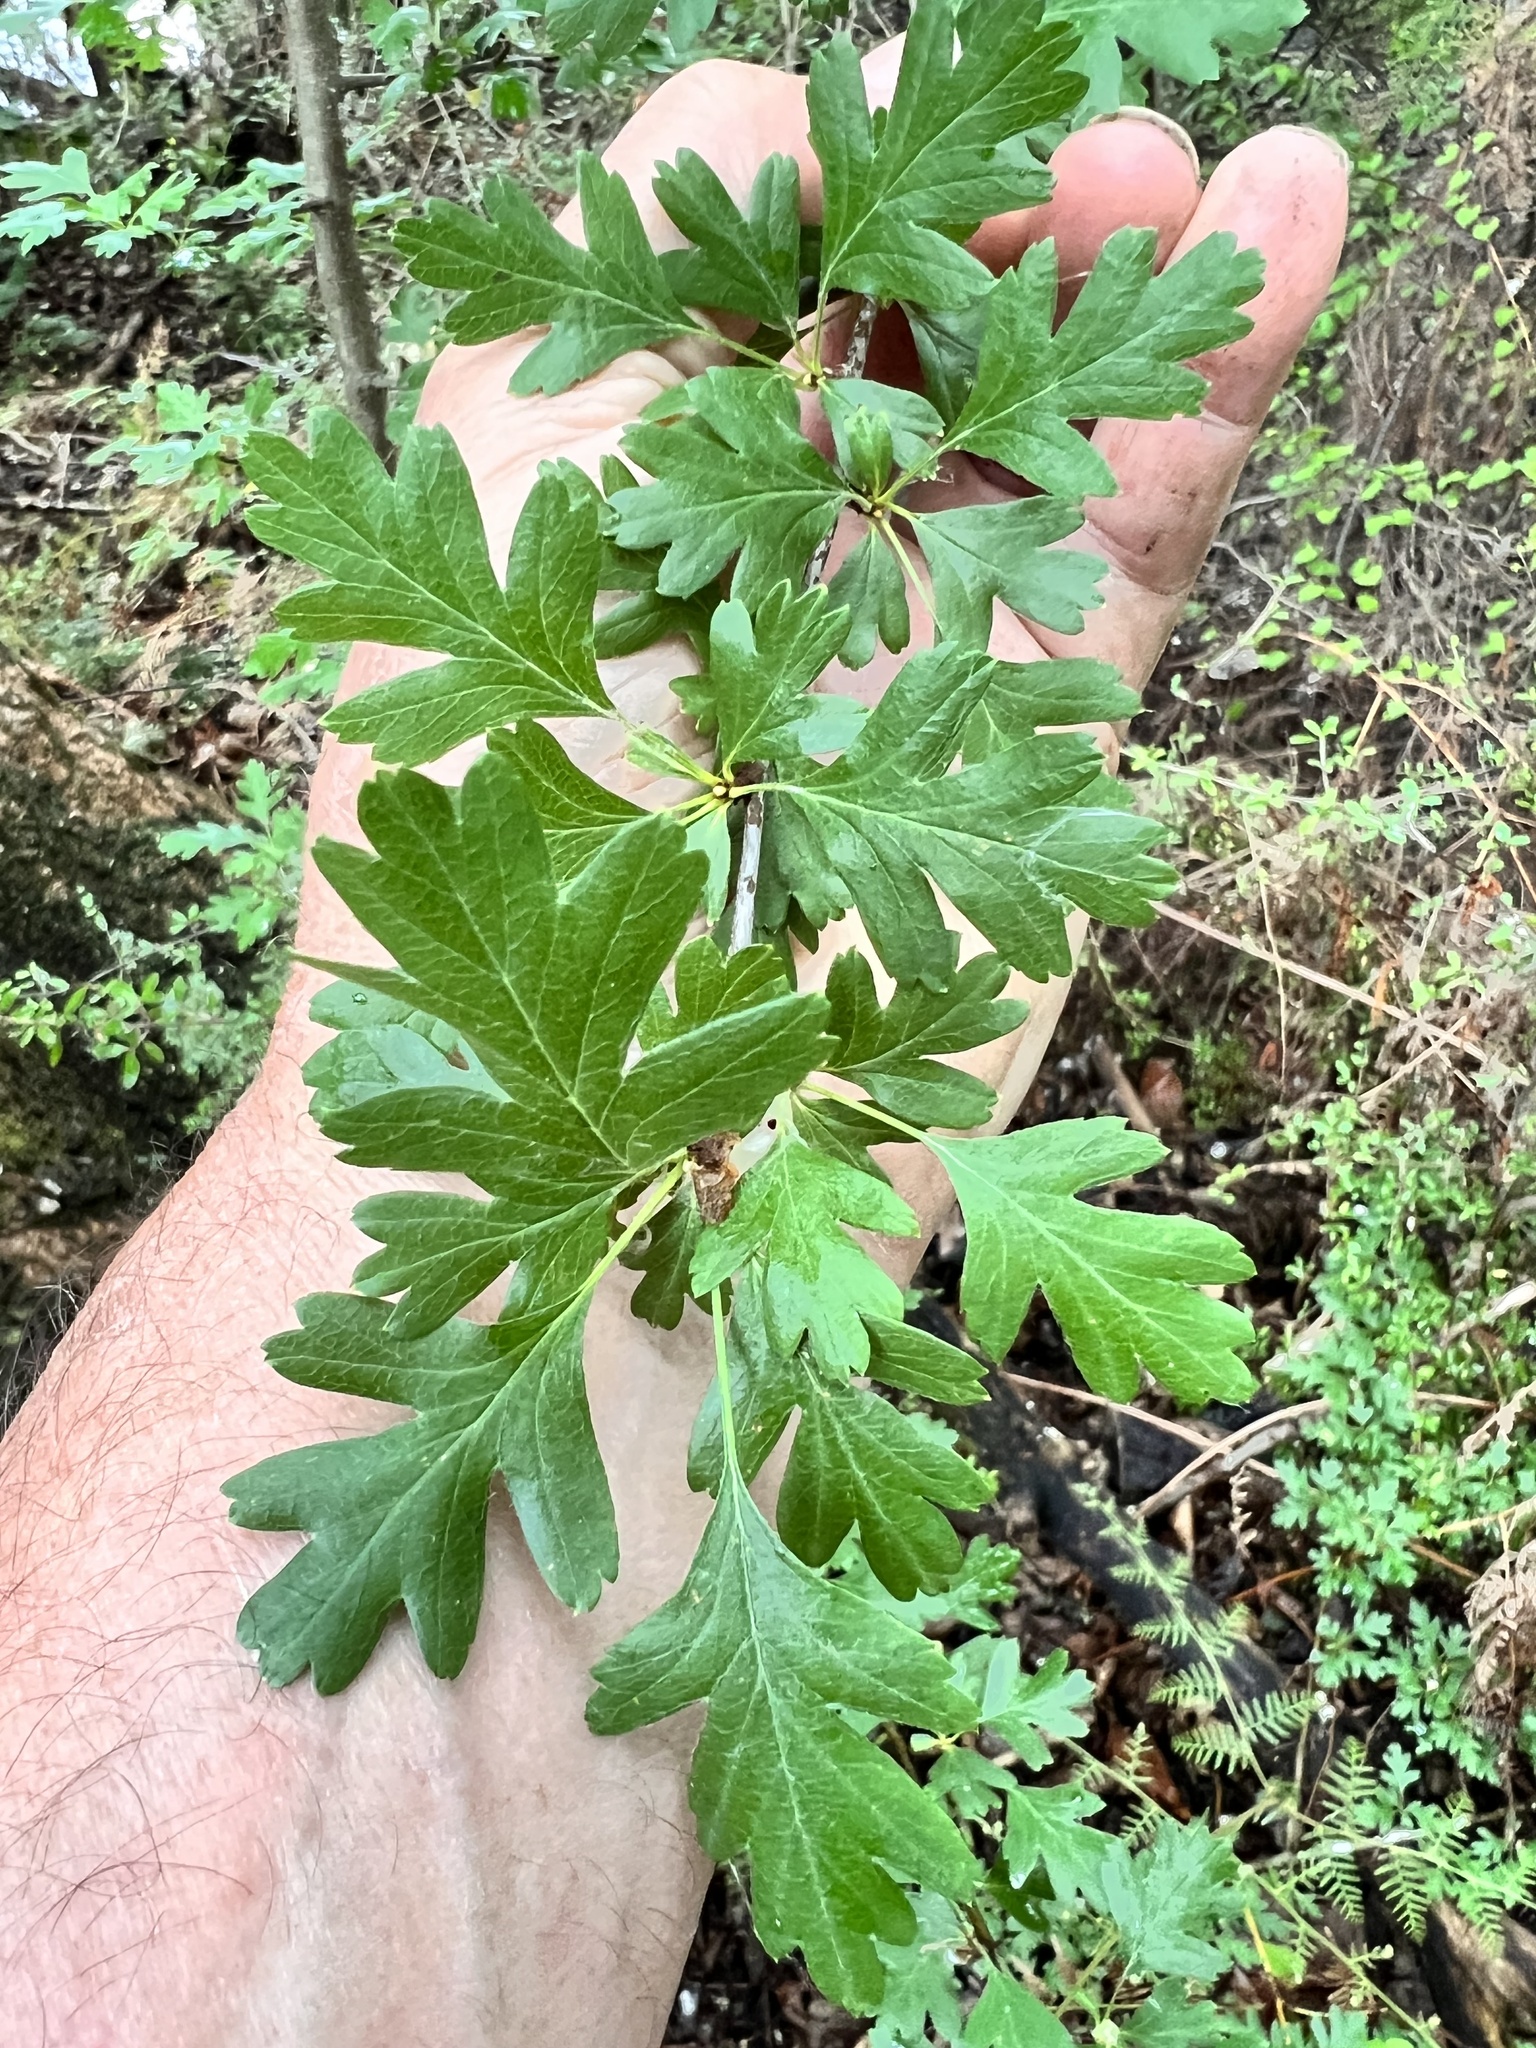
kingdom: Plantae
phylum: Tracheophyta
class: Magnoliopsida
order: Rosales
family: Rosaceae
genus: Crataegus
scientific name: Crataegus monogyna
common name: Hawthorn
